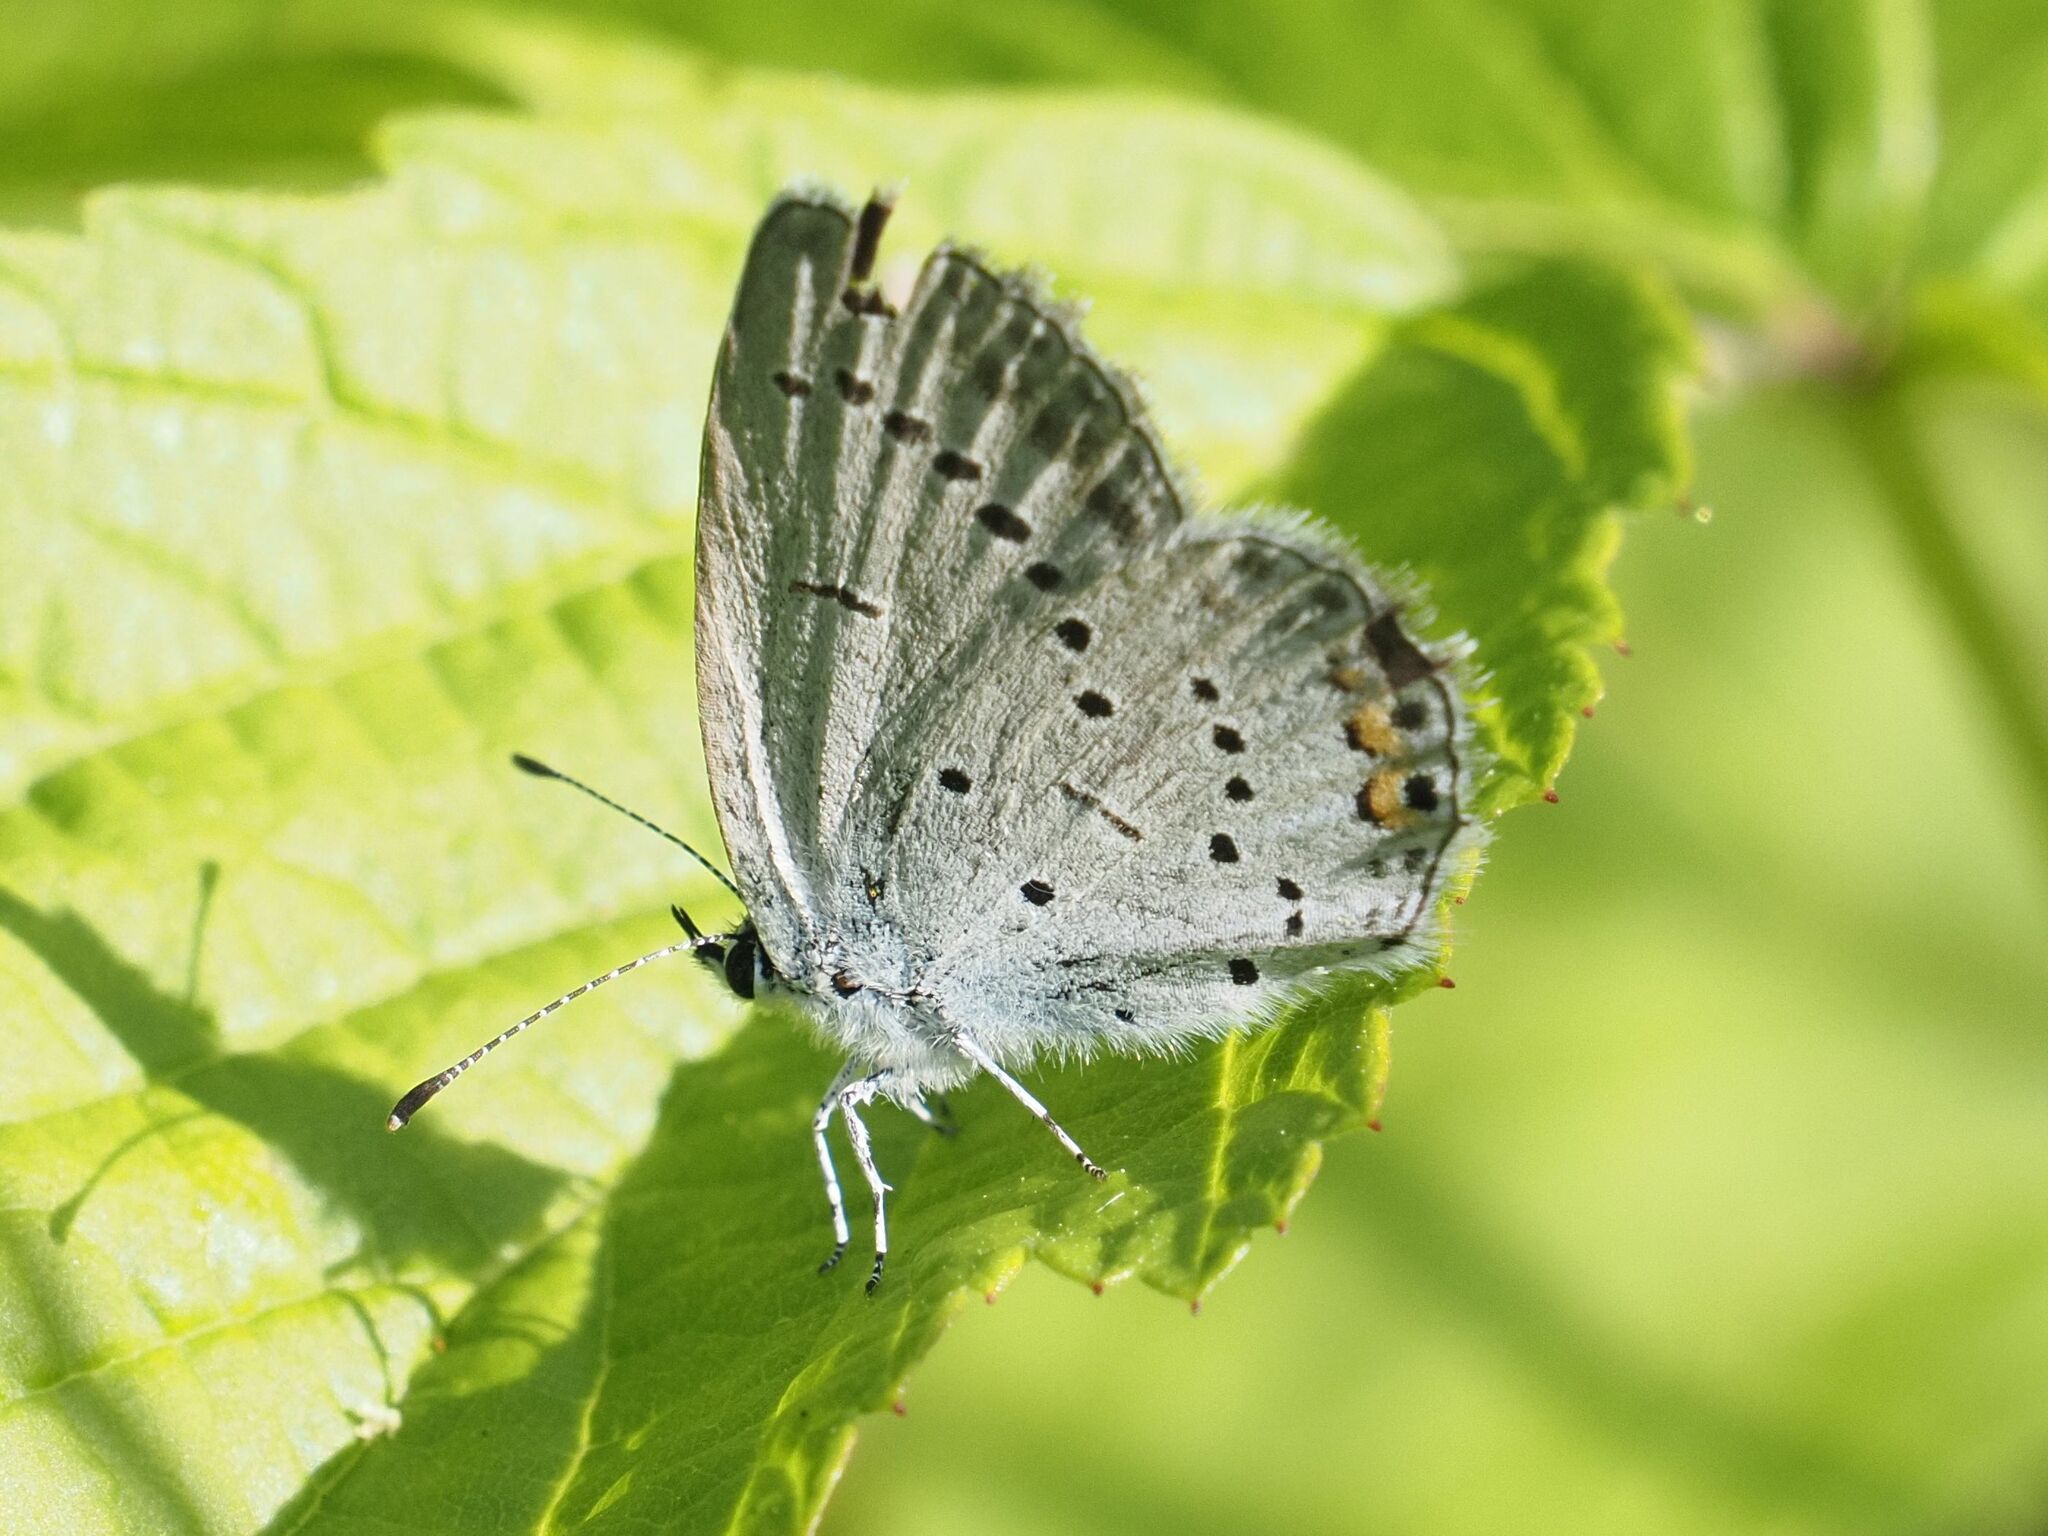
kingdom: Animalia
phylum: Arthropoda
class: Insecta
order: Lepidoptera
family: Lycaenidae
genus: Elkalyce
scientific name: Elkalyce argiades
